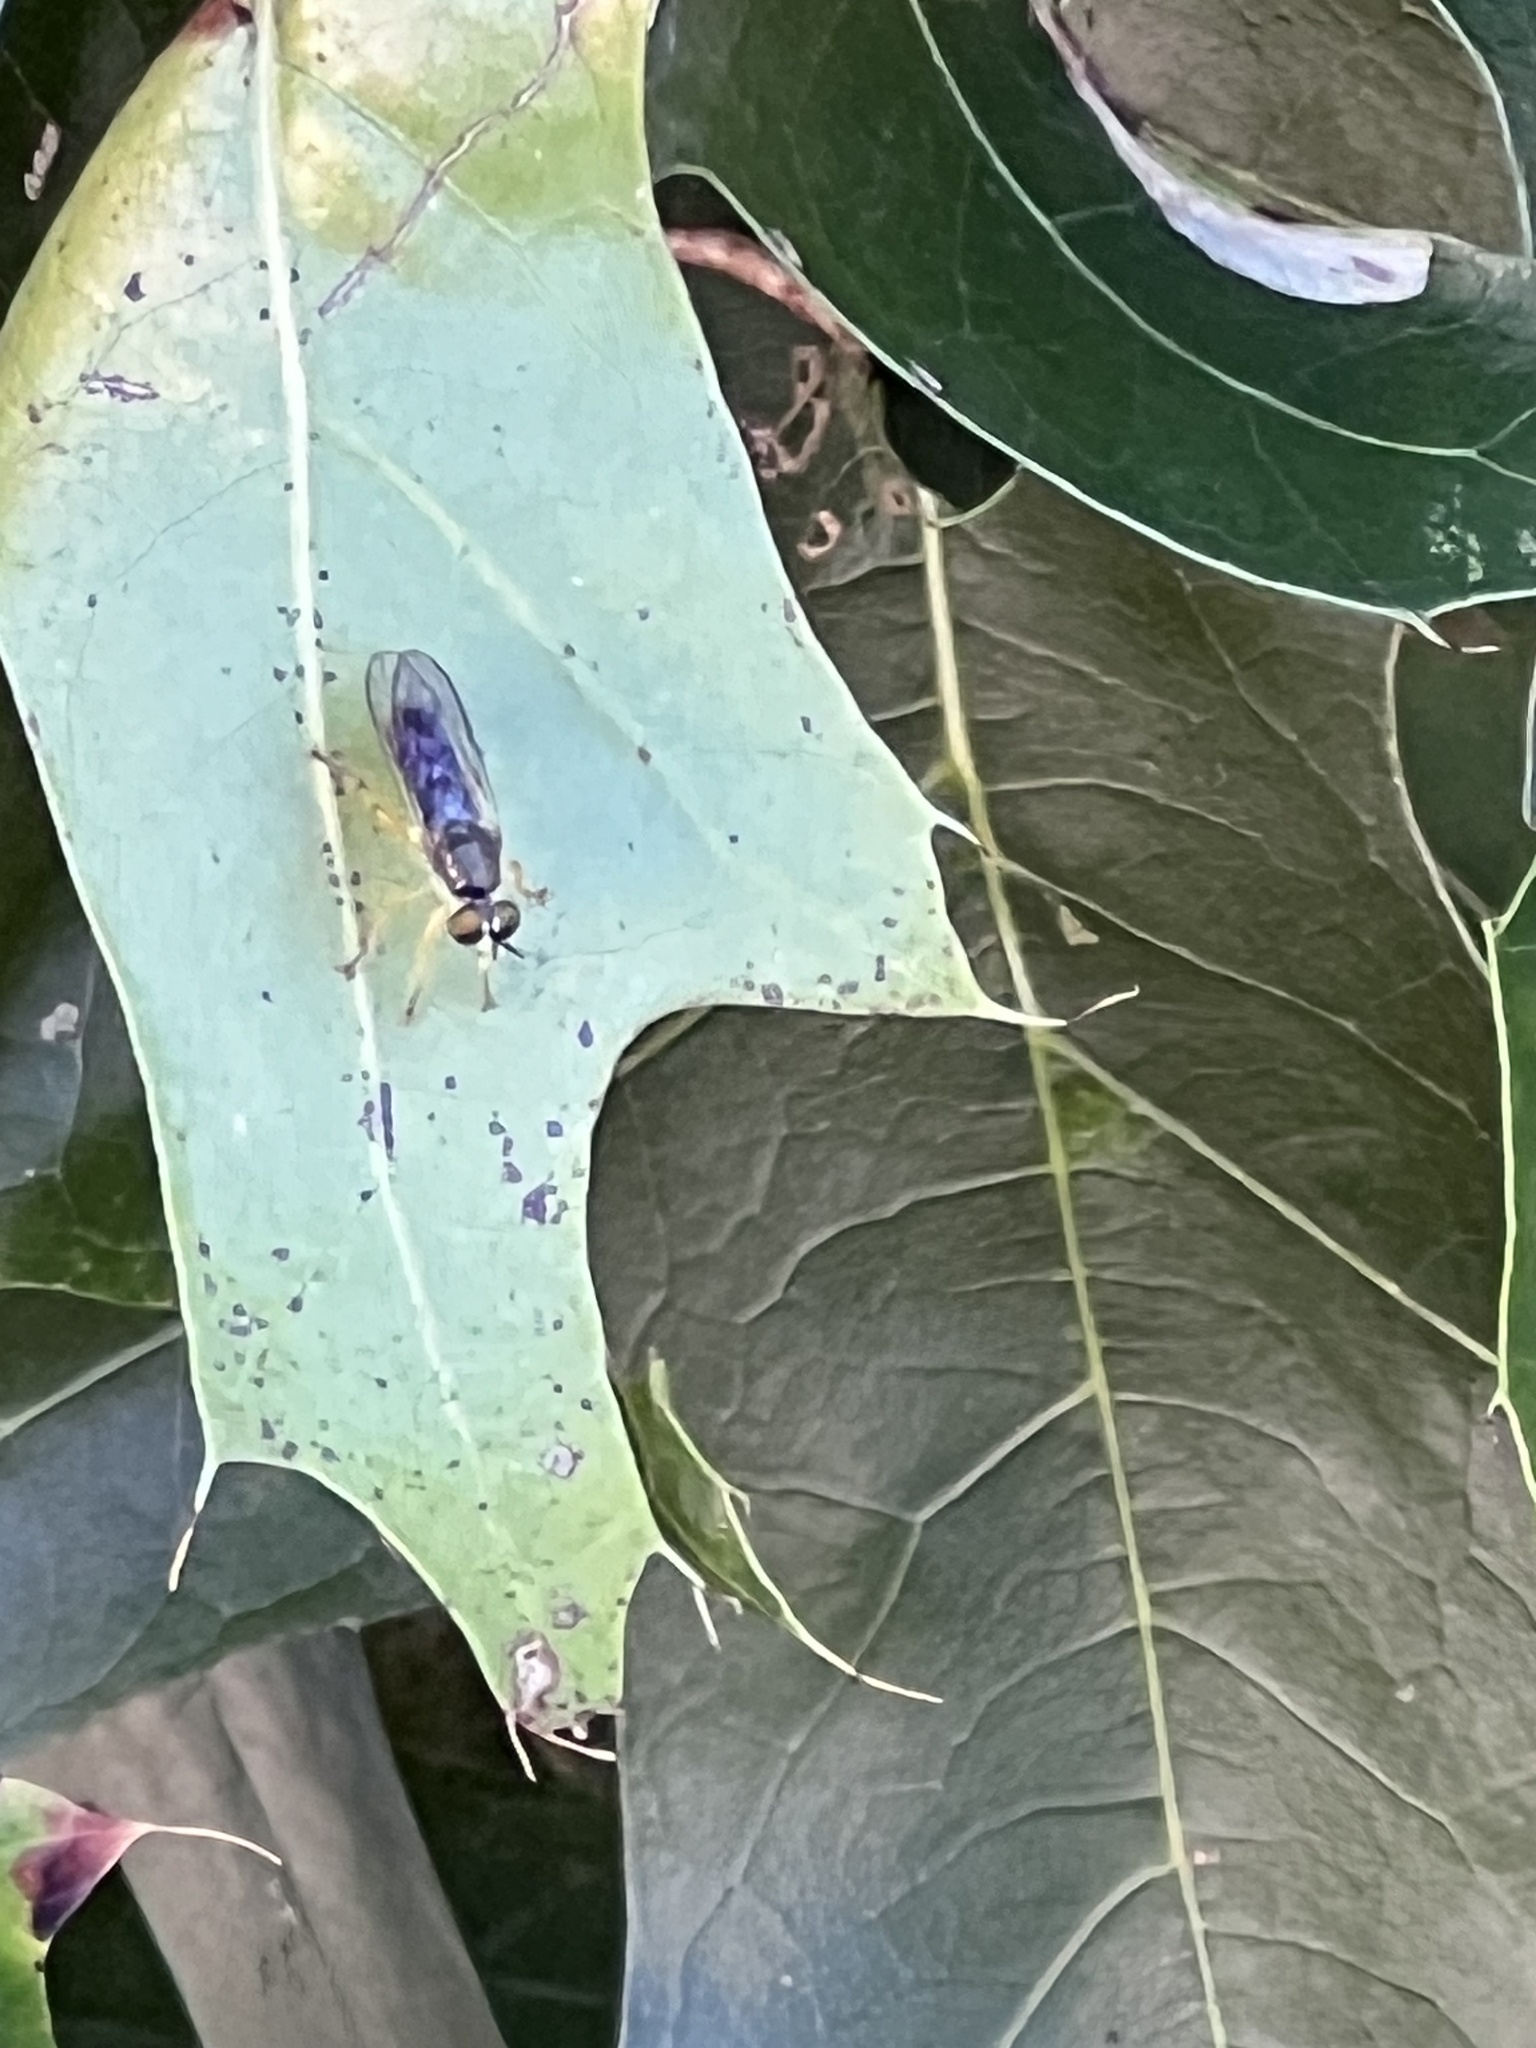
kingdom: Animalia
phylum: Arthropoda
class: Insecta
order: Diptera
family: Asilidae
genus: Atomosia
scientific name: Atomosia rufipes
